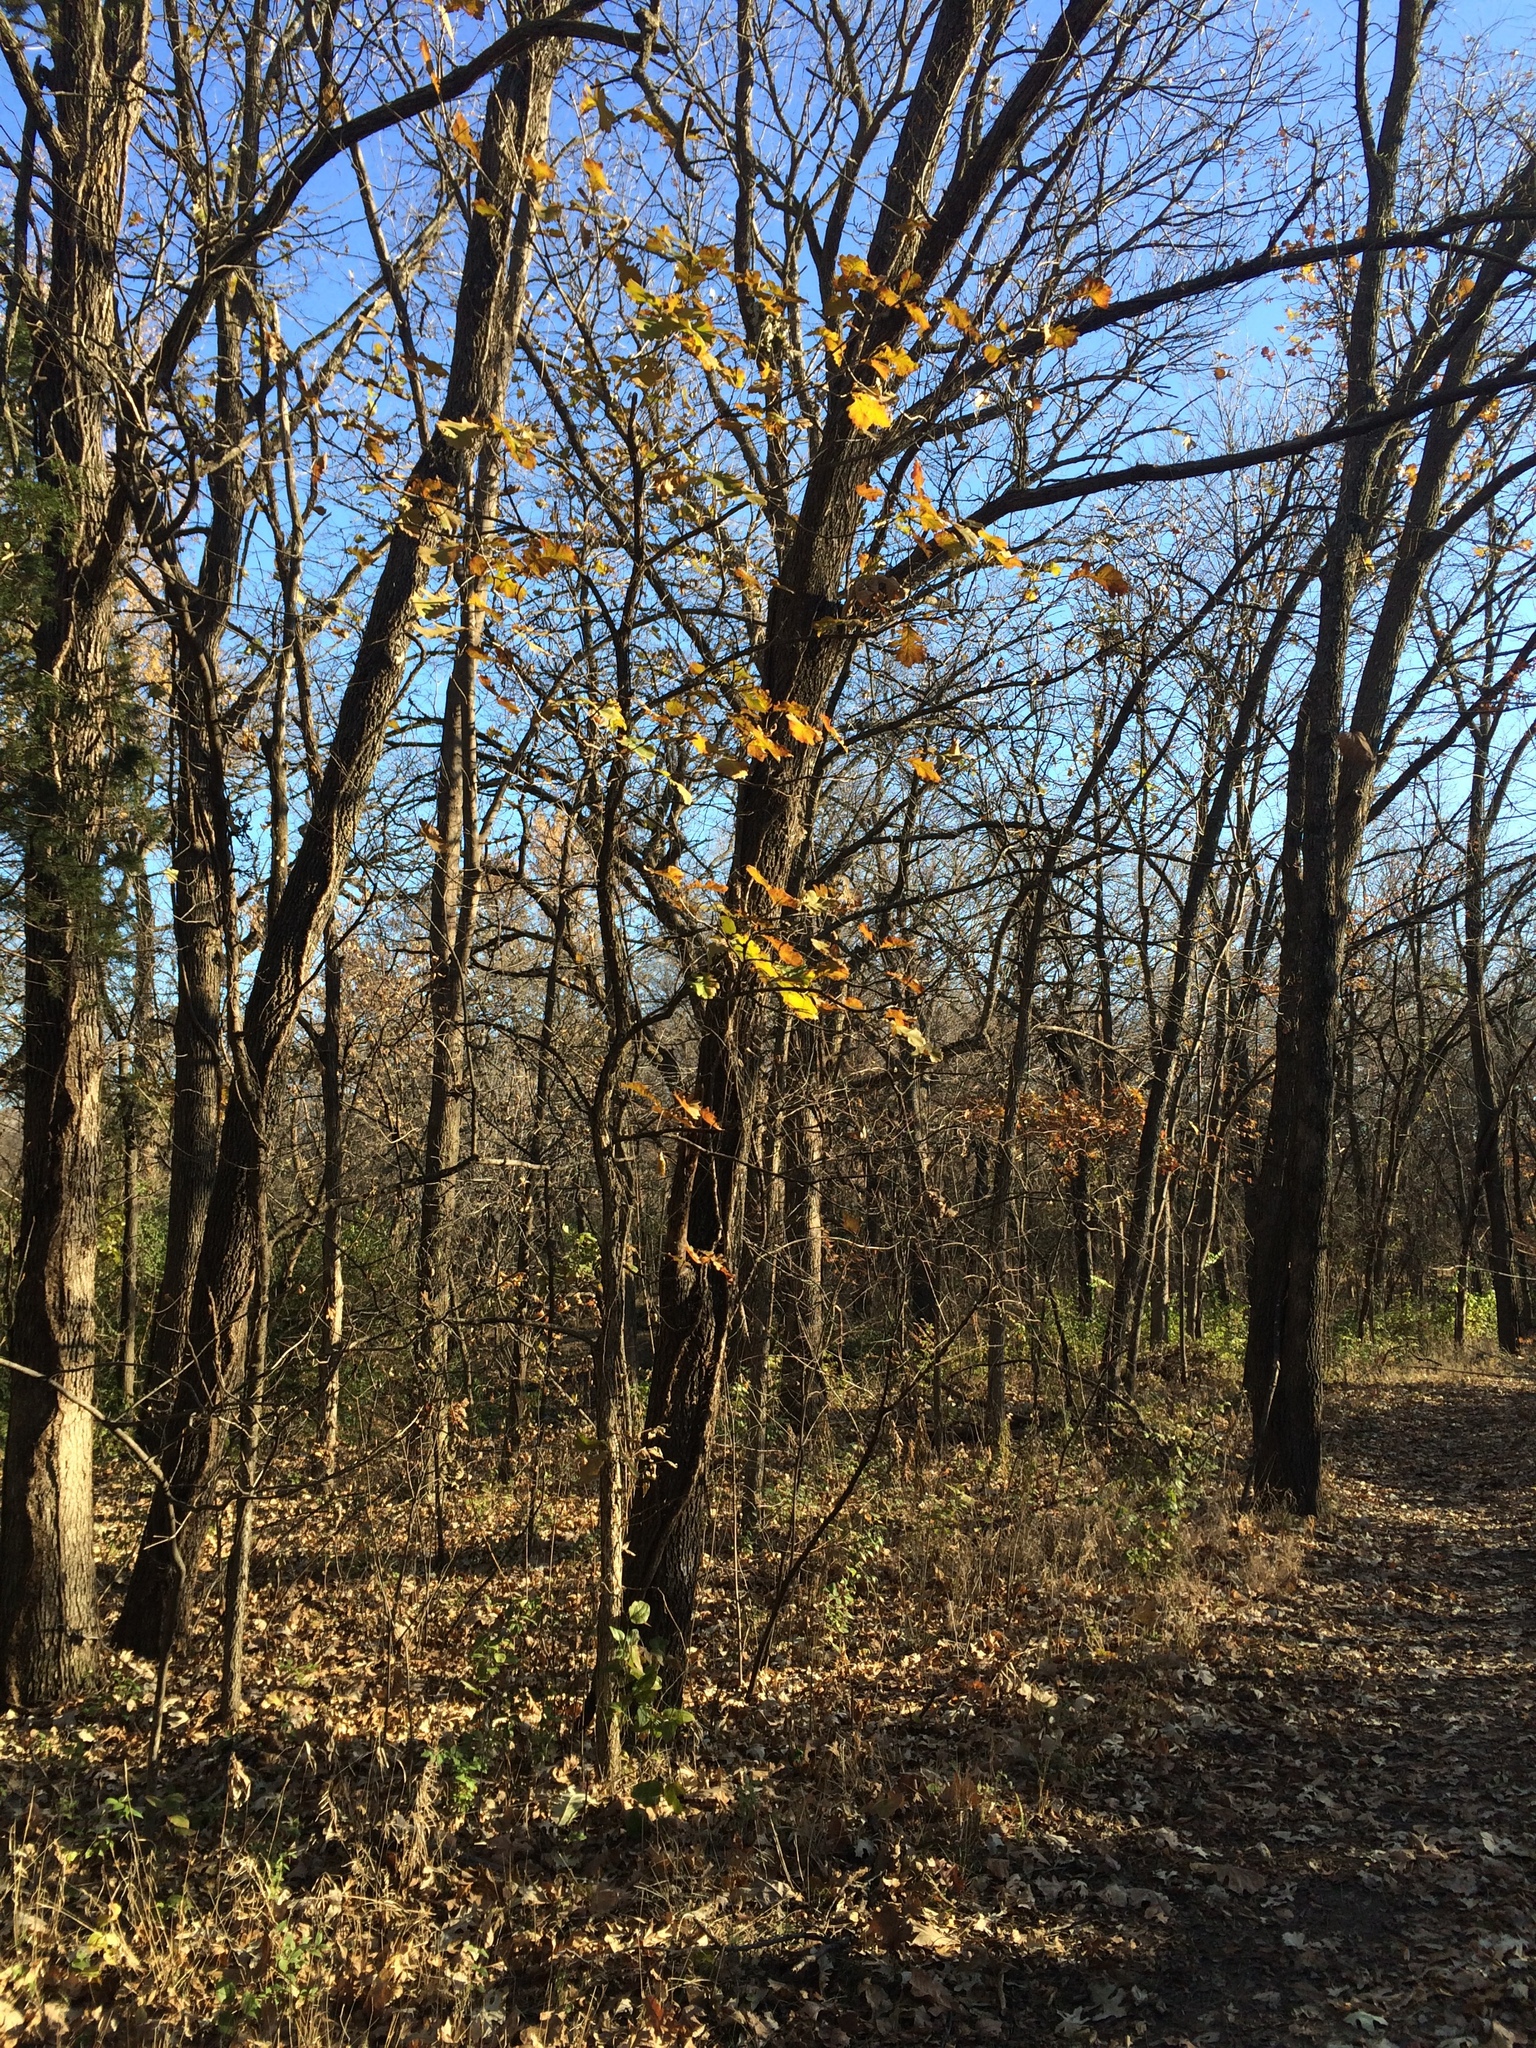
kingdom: Plantae
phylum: Tracheophyta
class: Magnoliopsida
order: Fagales
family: Fagaceae
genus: Quercus
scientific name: Quercus macrocarpa
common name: Bur oak
